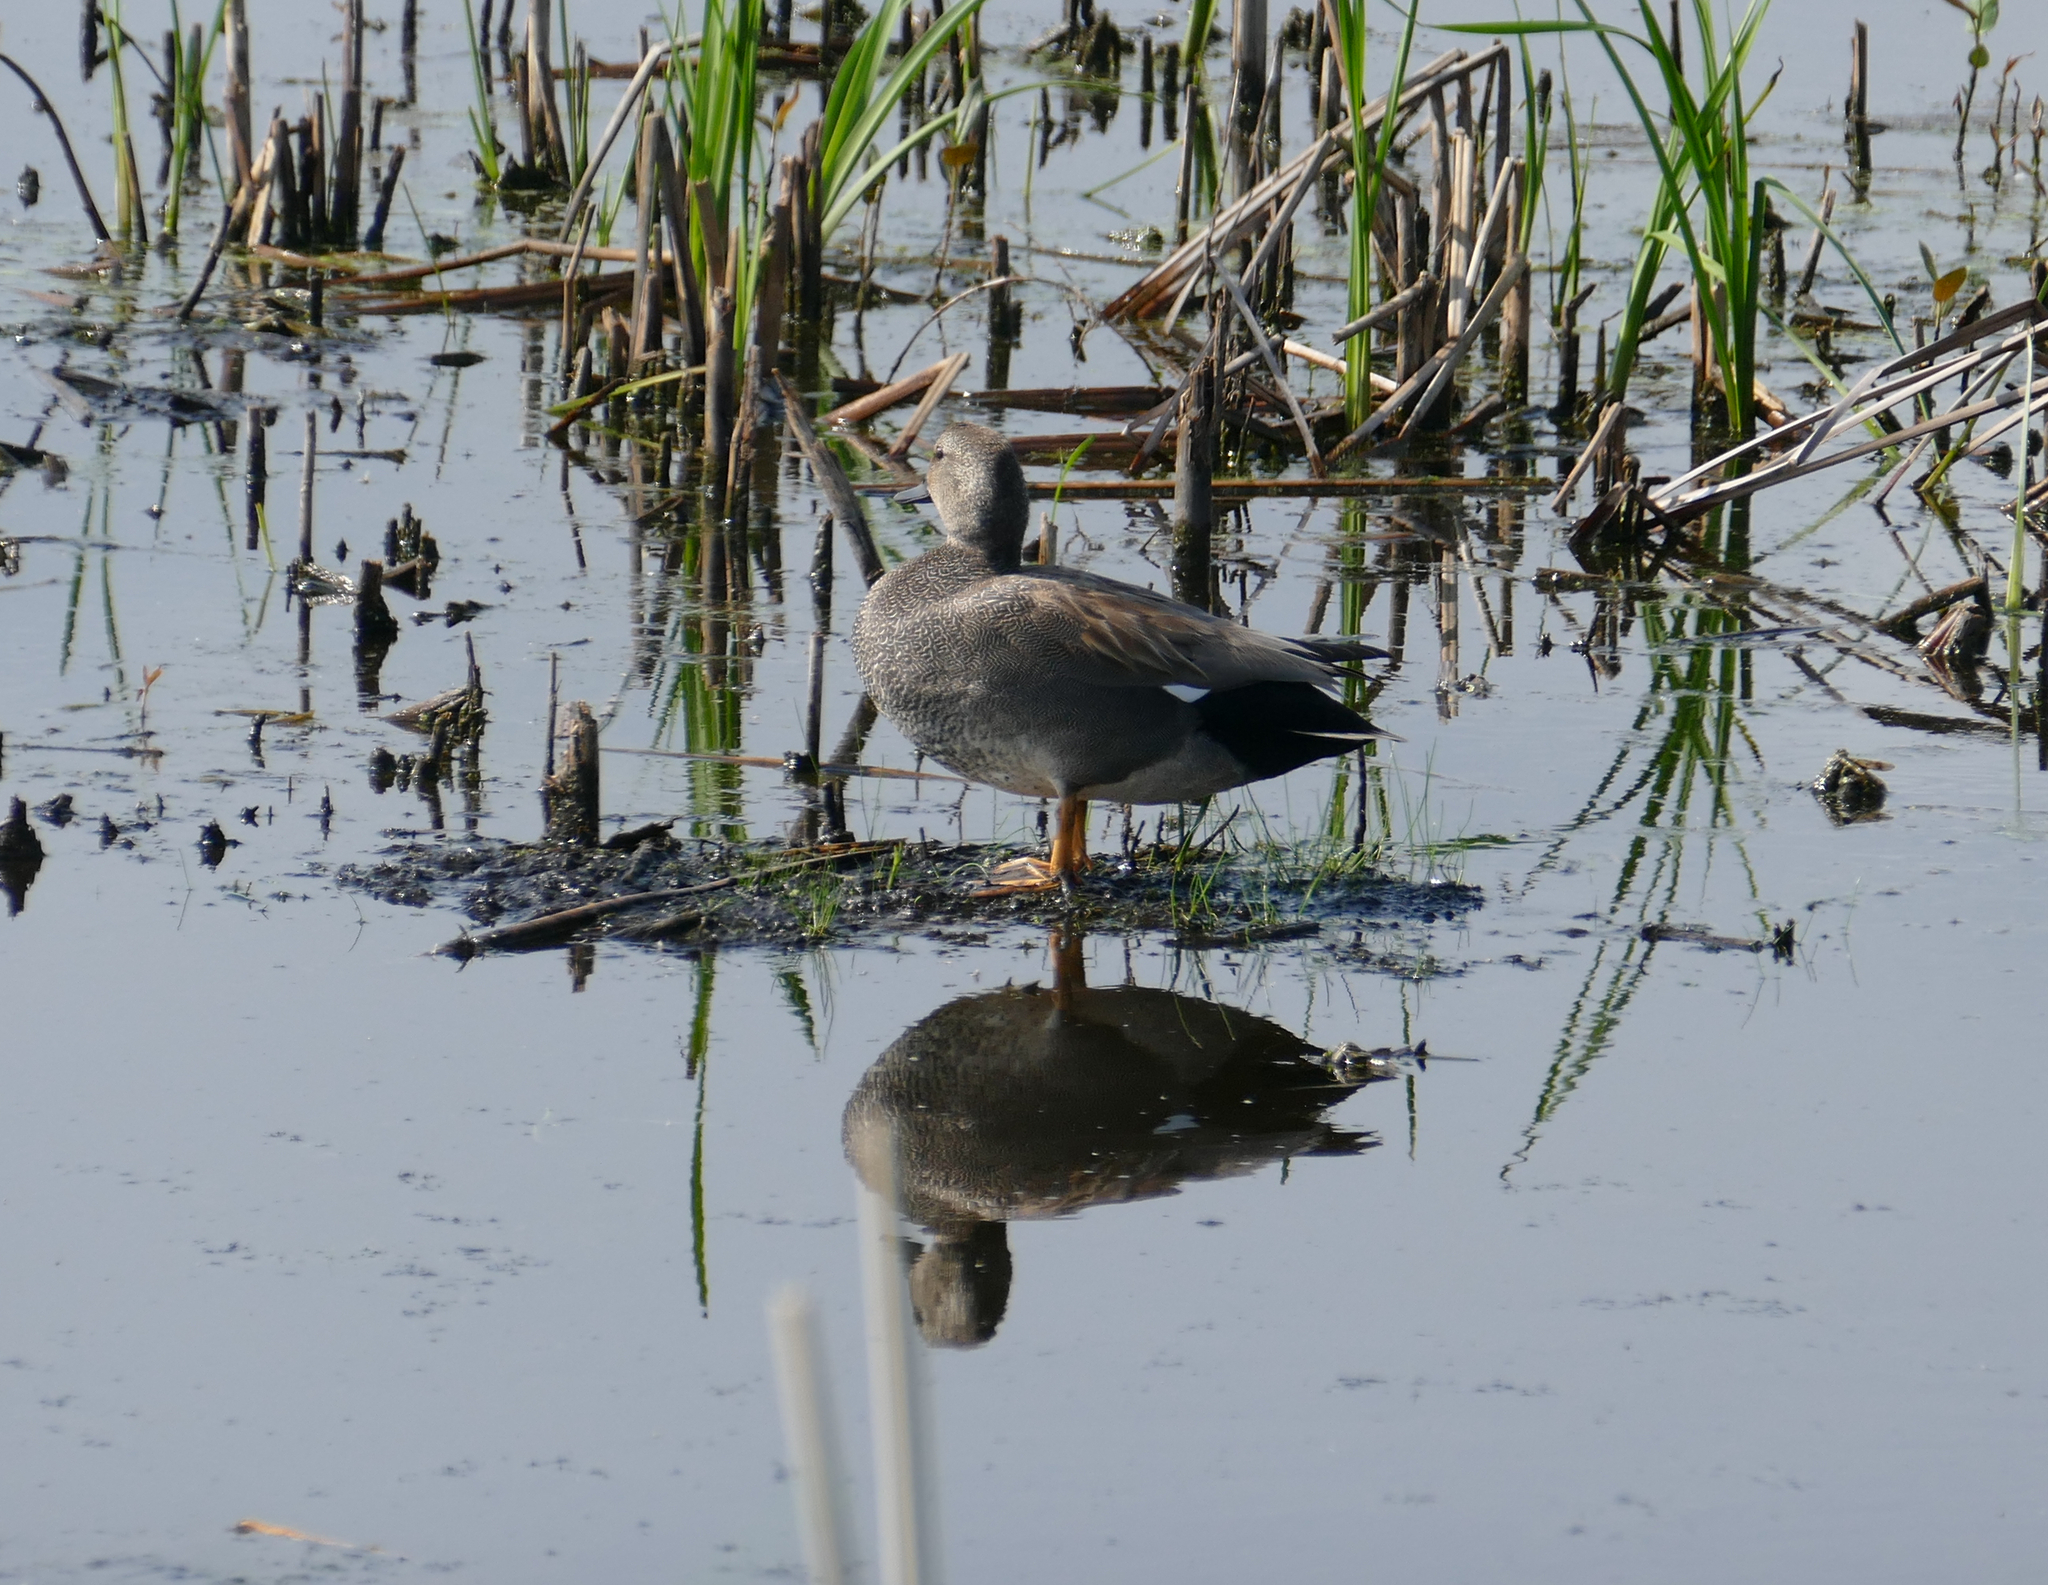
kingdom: Animalia
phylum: Chordata
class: Aves
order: Anseriformes
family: Anatidae
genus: Mareca
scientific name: Mareca strepera
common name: Gadwall
